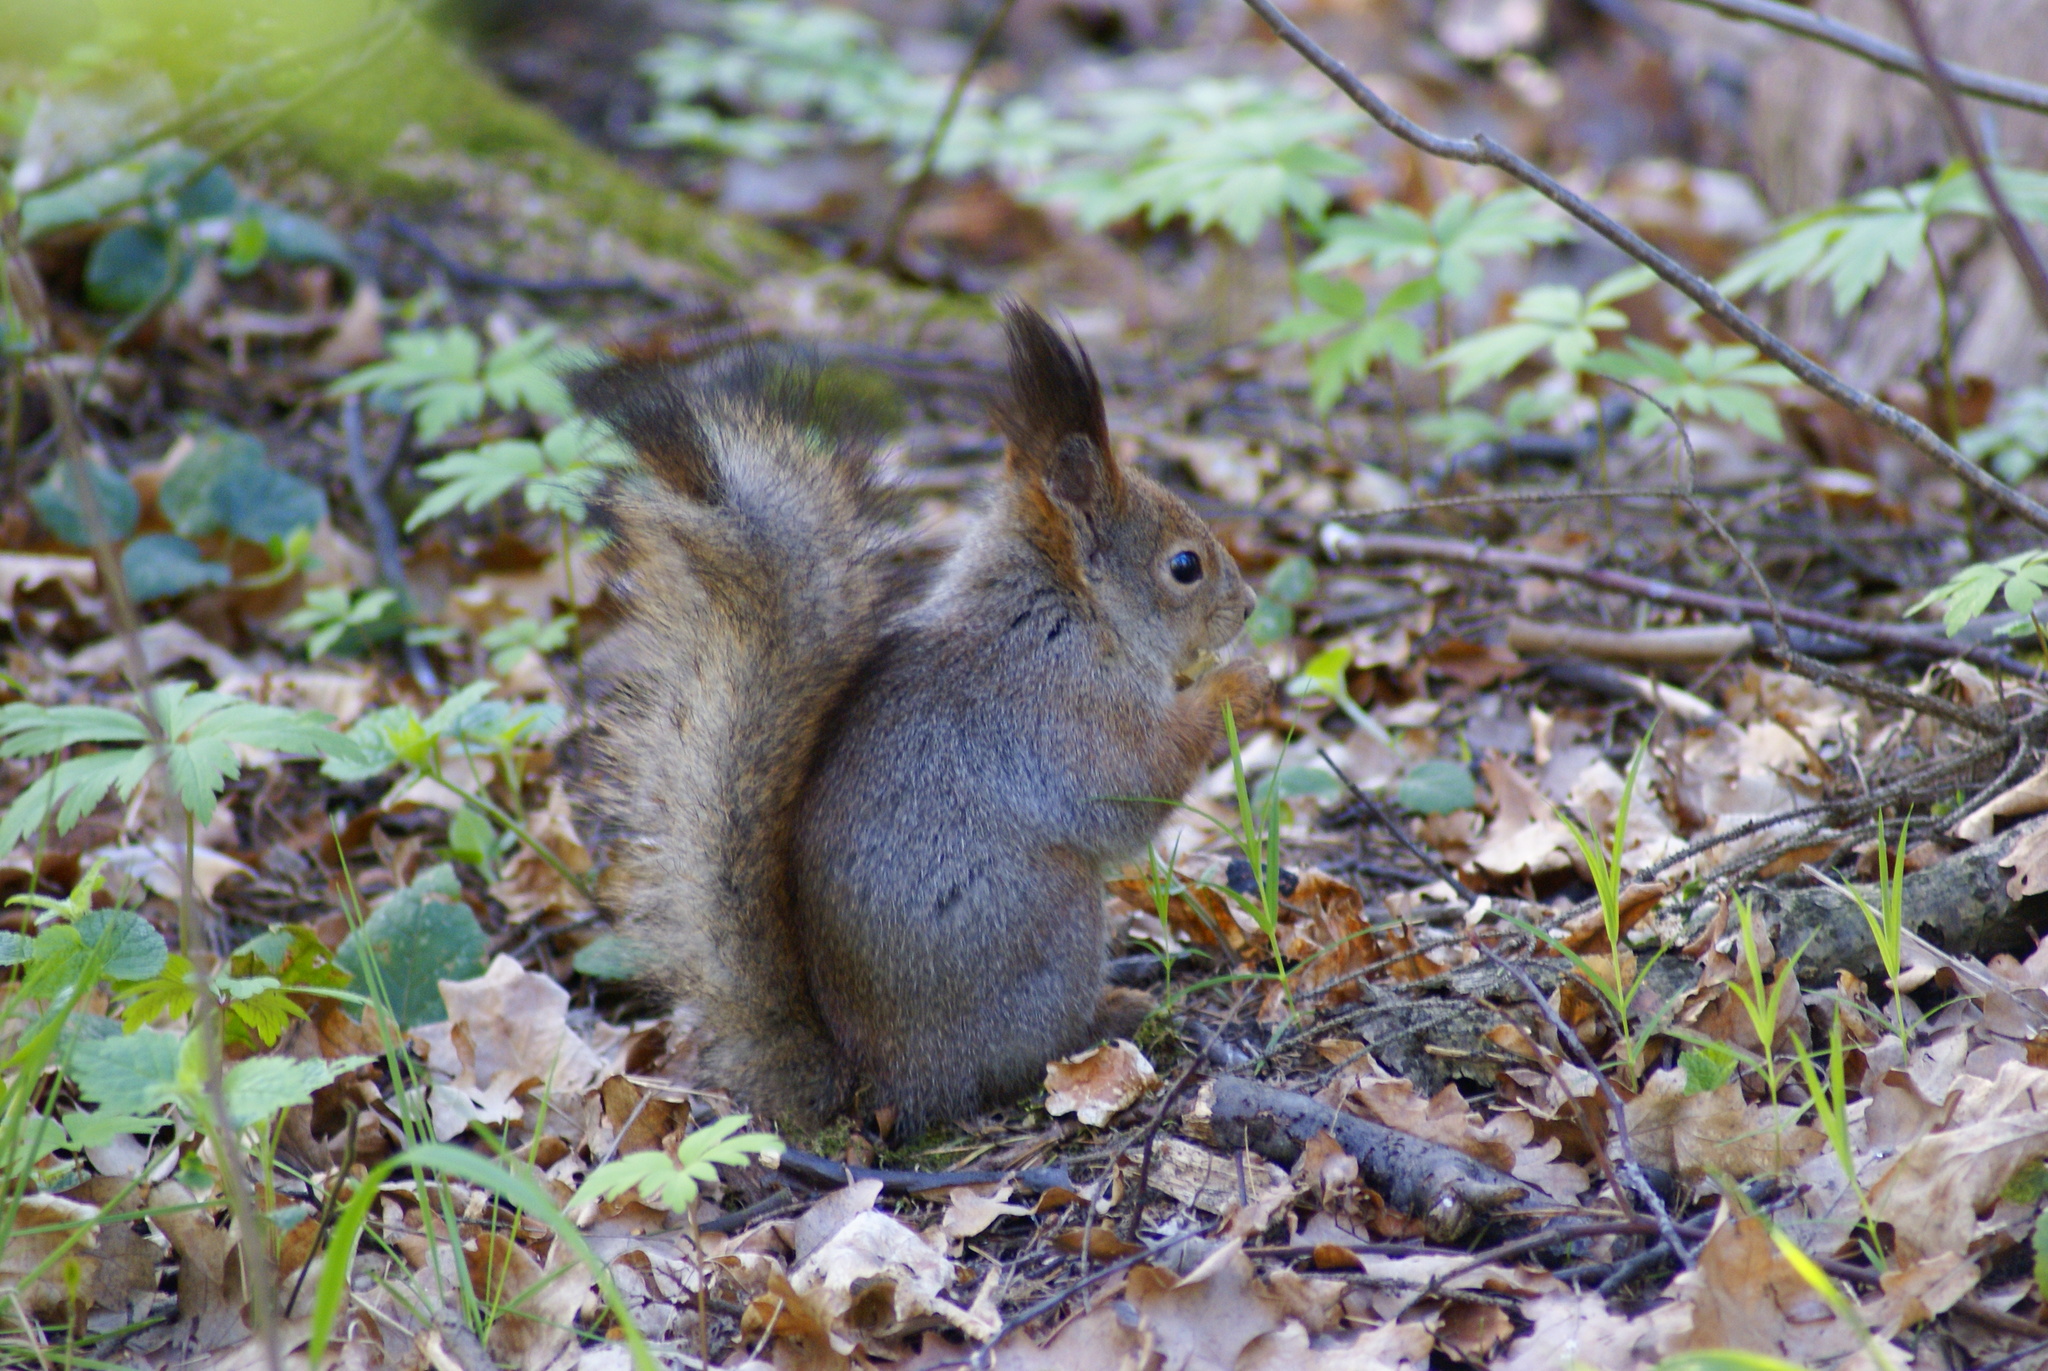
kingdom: Animalia
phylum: Chordata
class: Mammalia
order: Rodentia
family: Sciuridae
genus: Sciurus
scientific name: Sciurus vulgaris
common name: Eurasian red squirrel
